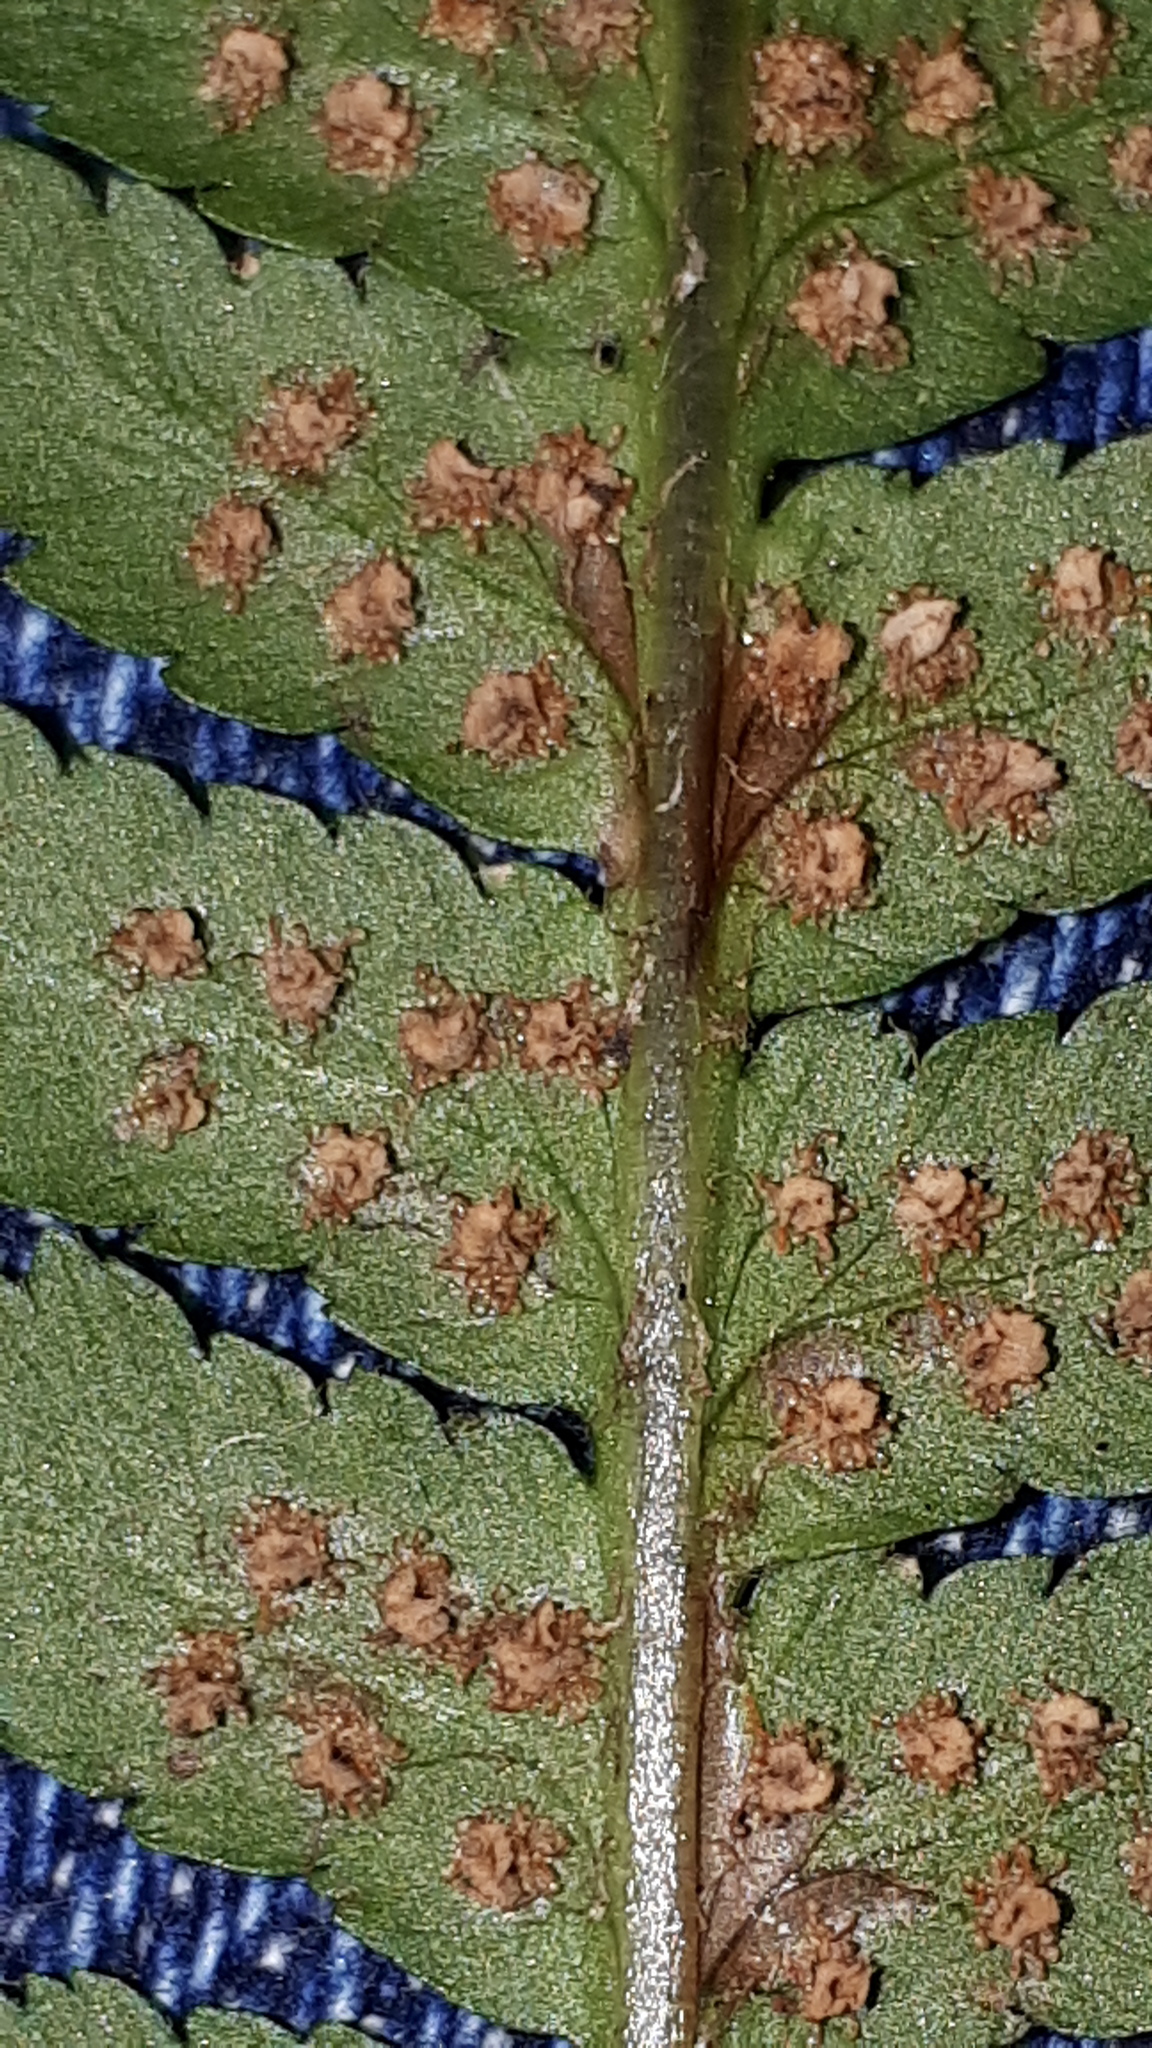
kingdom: Plantae
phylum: Tracheophyta
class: Polypodiopsida
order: Polypodiales
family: Dryopteridaceae
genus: Dryopteris
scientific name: Dryopteris filix-mas
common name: Male fern
